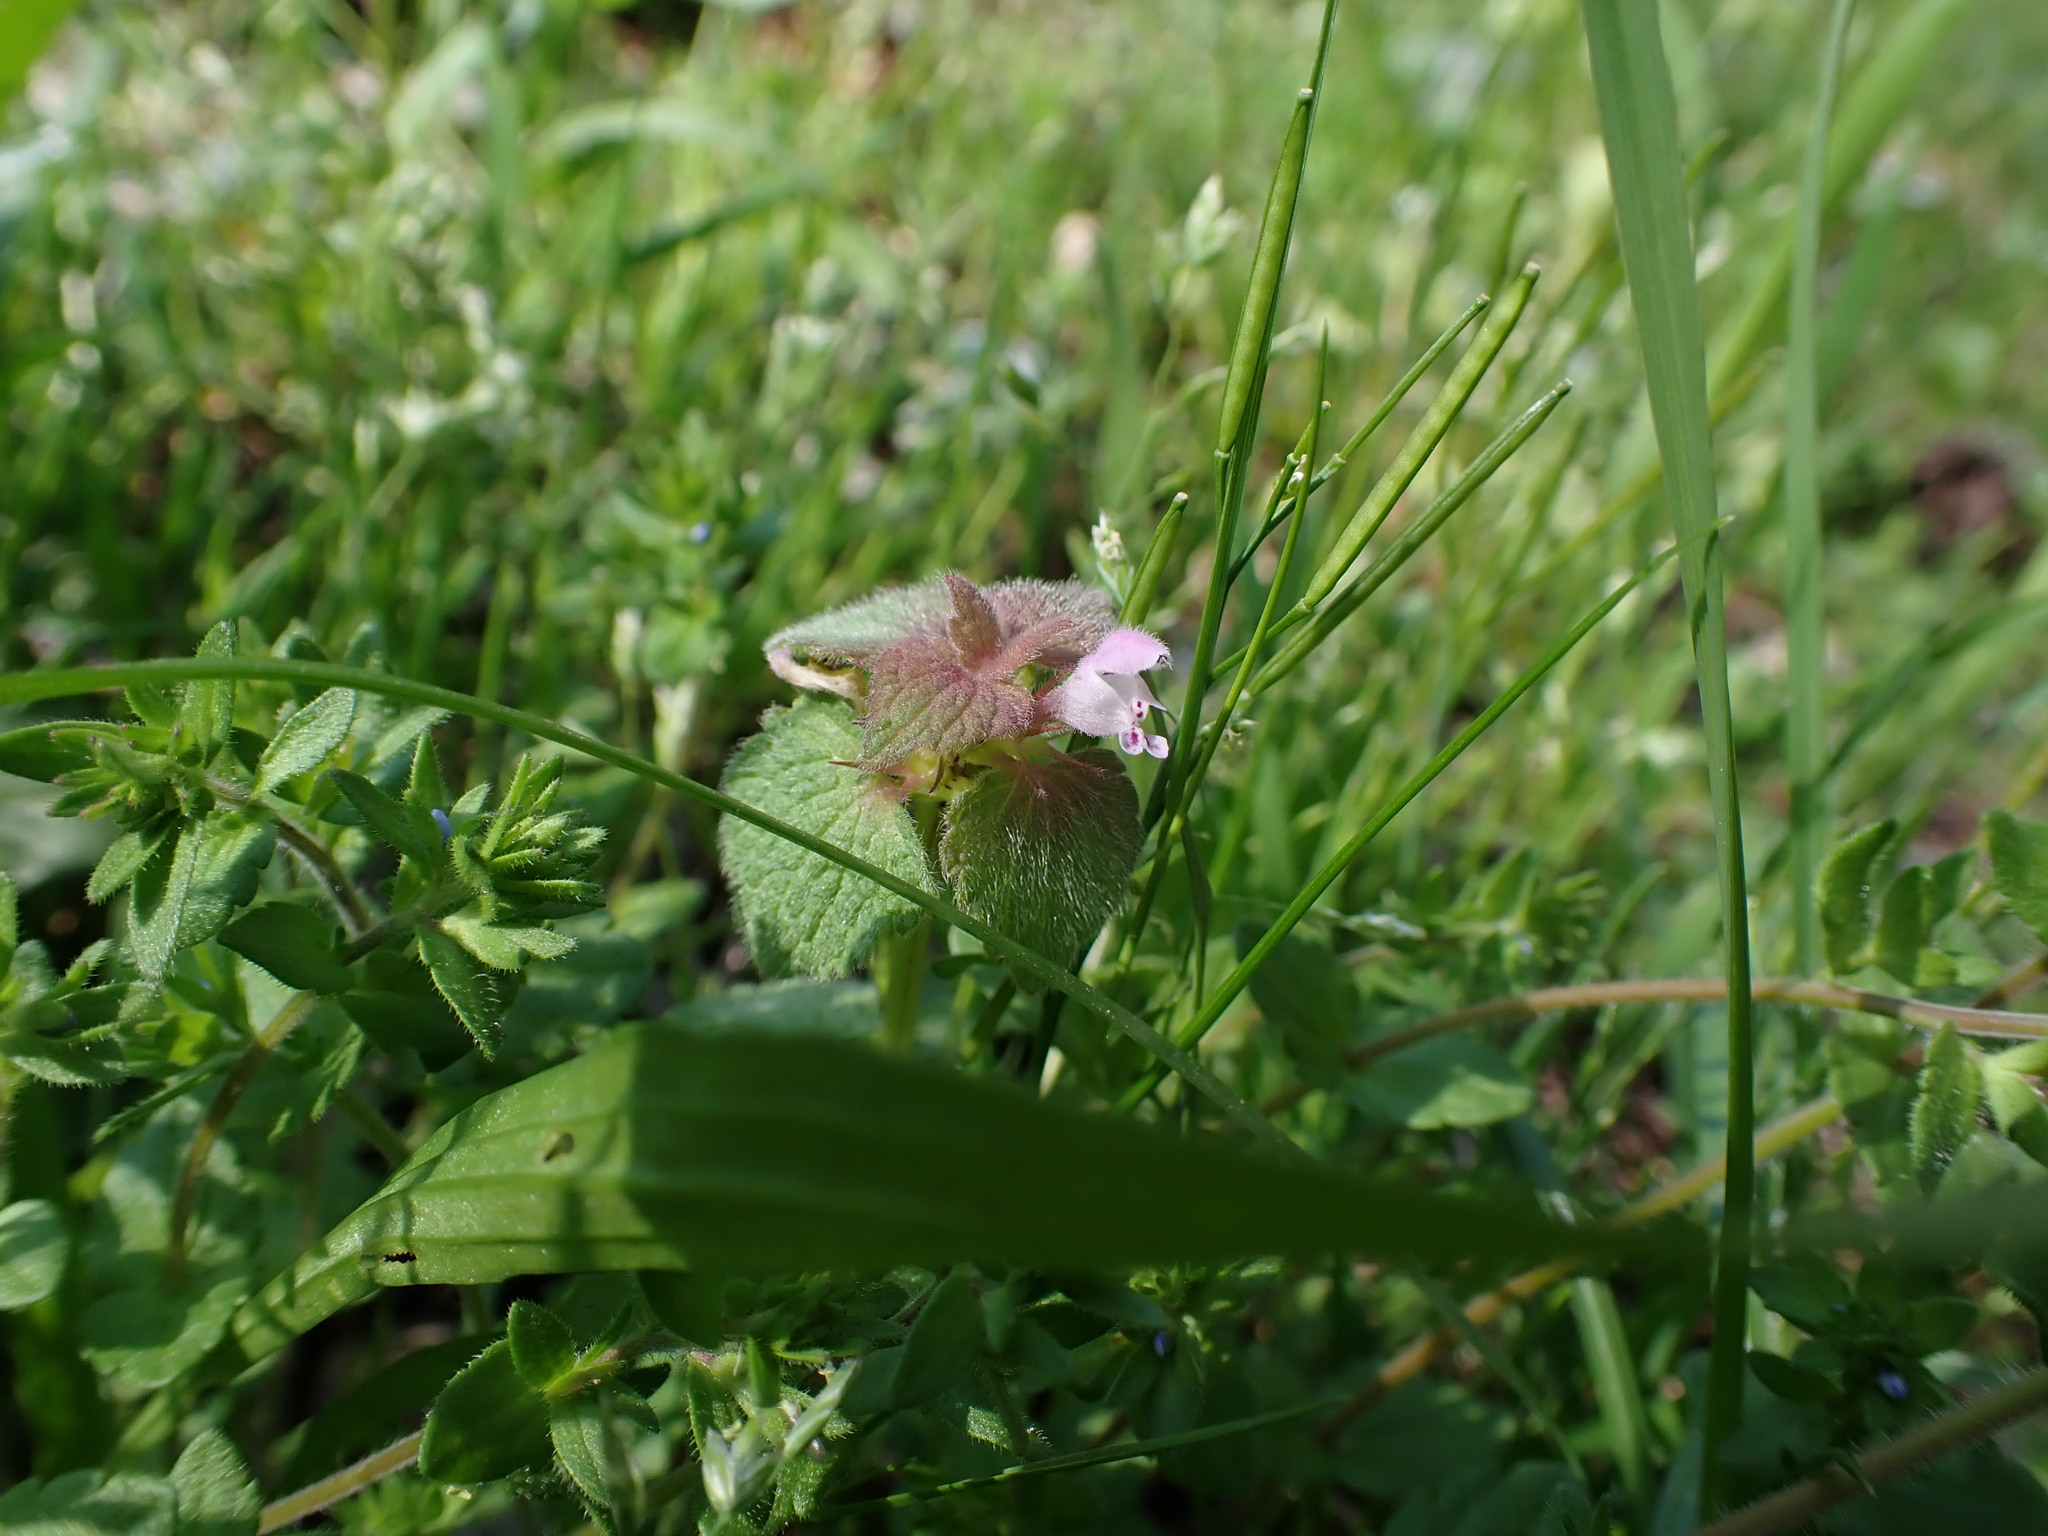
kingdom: Plantae
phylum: Tracheophyta
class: Magnoliopsida
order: Lamiales
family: Lamiaceae
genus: Lamium
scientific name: Lamium purpureum
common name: Red dead-nettle
